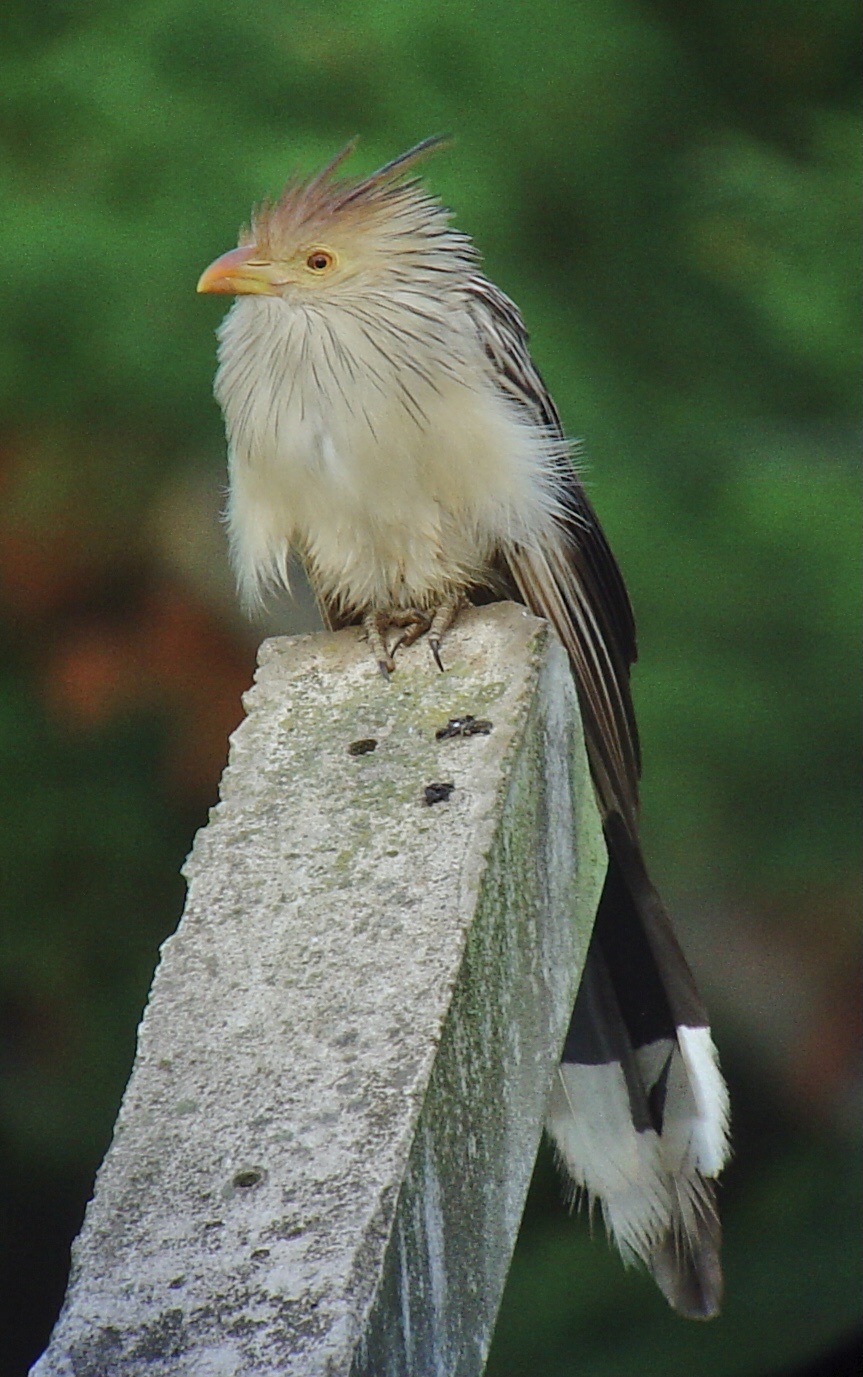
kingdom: Animalia
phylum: Chordata
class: Aves
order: Cuculiformes
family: Cuculidae
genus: Guira
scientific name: Guira guira
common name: Guira cuckoo
